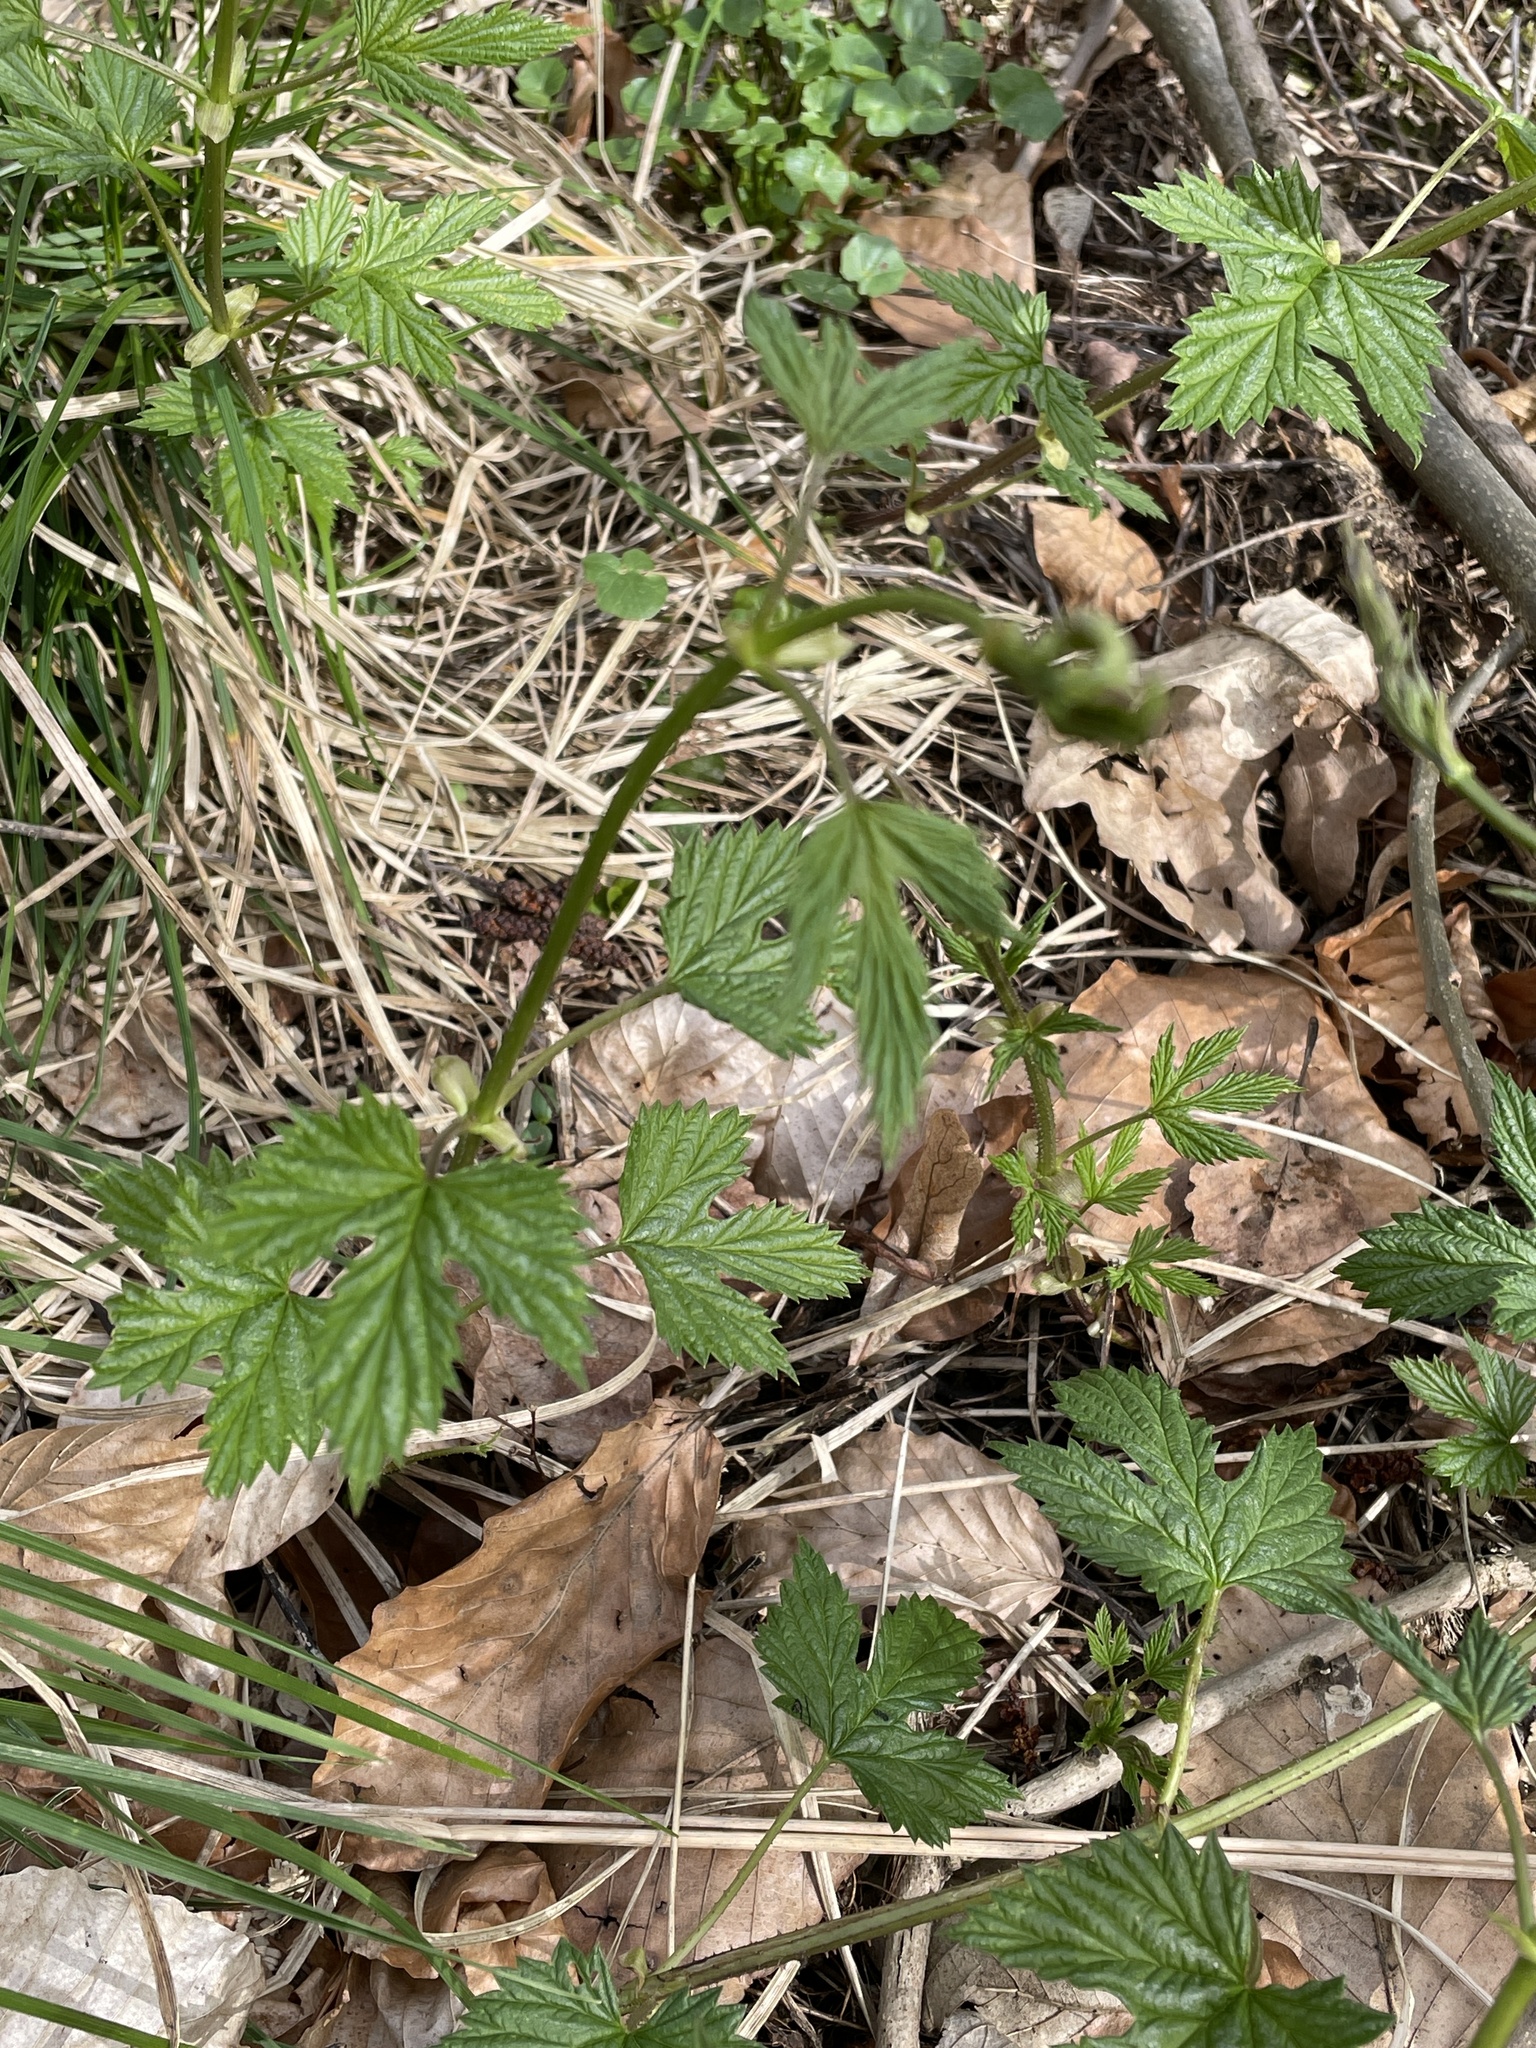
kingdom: Plantae
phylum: Tracheophyta
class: Magnoliopsida
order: Rosales
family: Cannabaceae
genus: Humulus
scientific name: Humulus lupulus
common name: Hop
